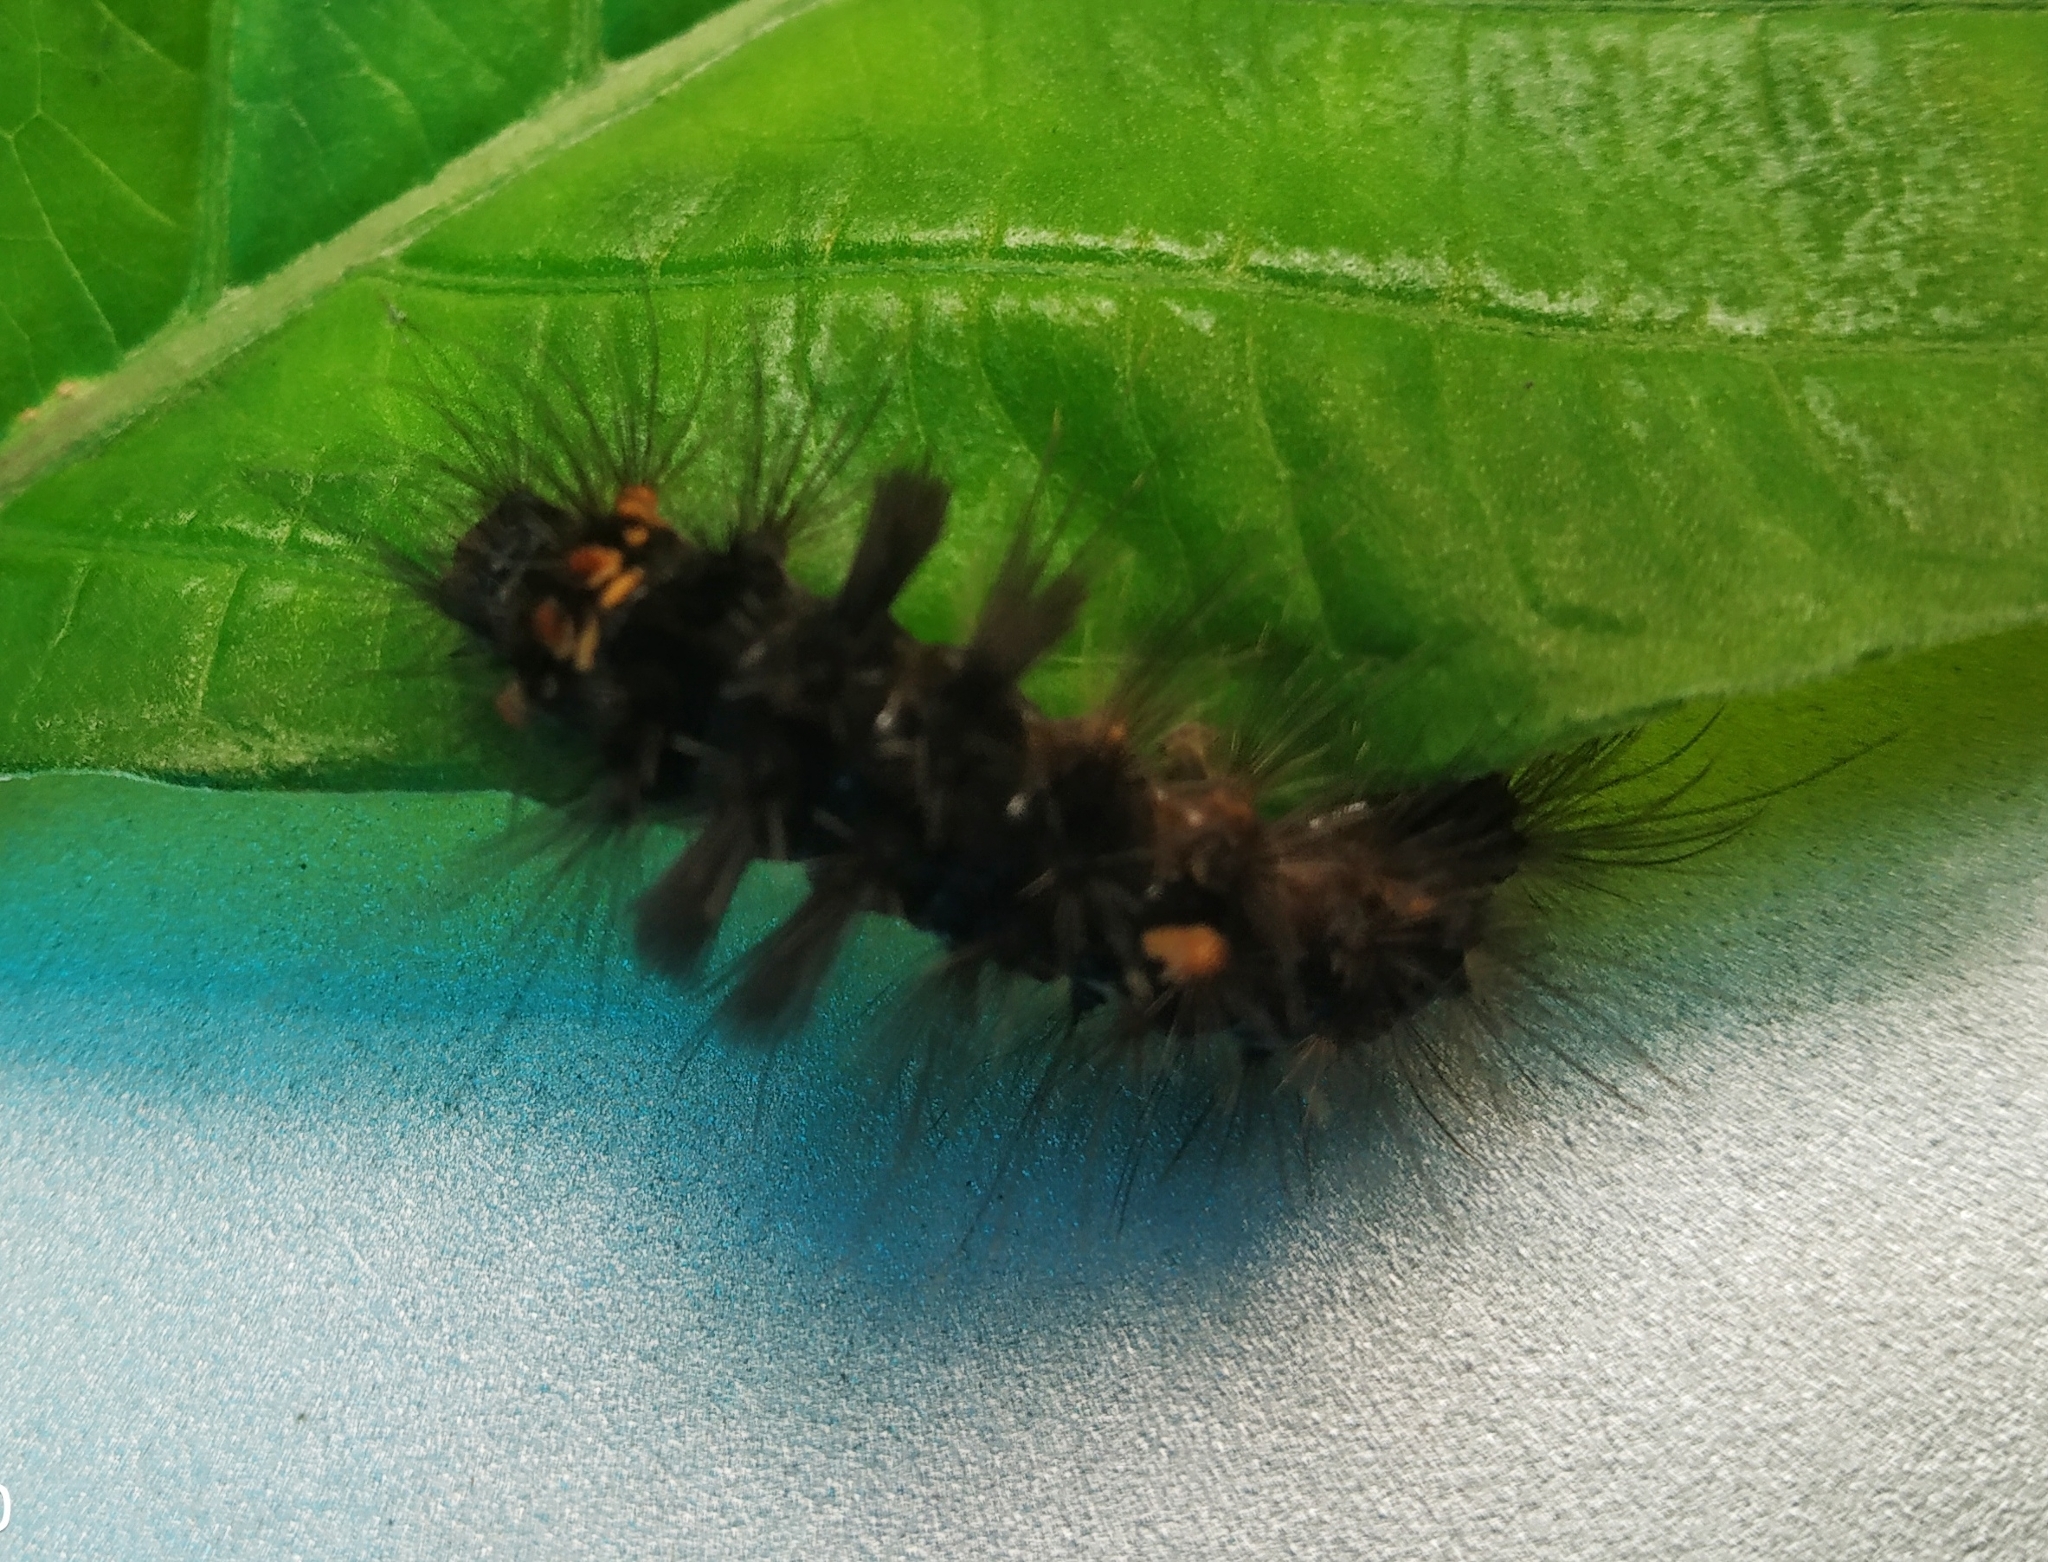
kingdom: Animalia
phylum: Arthropoda
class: Insecta
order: Lepidoptera
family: Erebidae
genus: Nepita
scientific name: Nepita conferta
